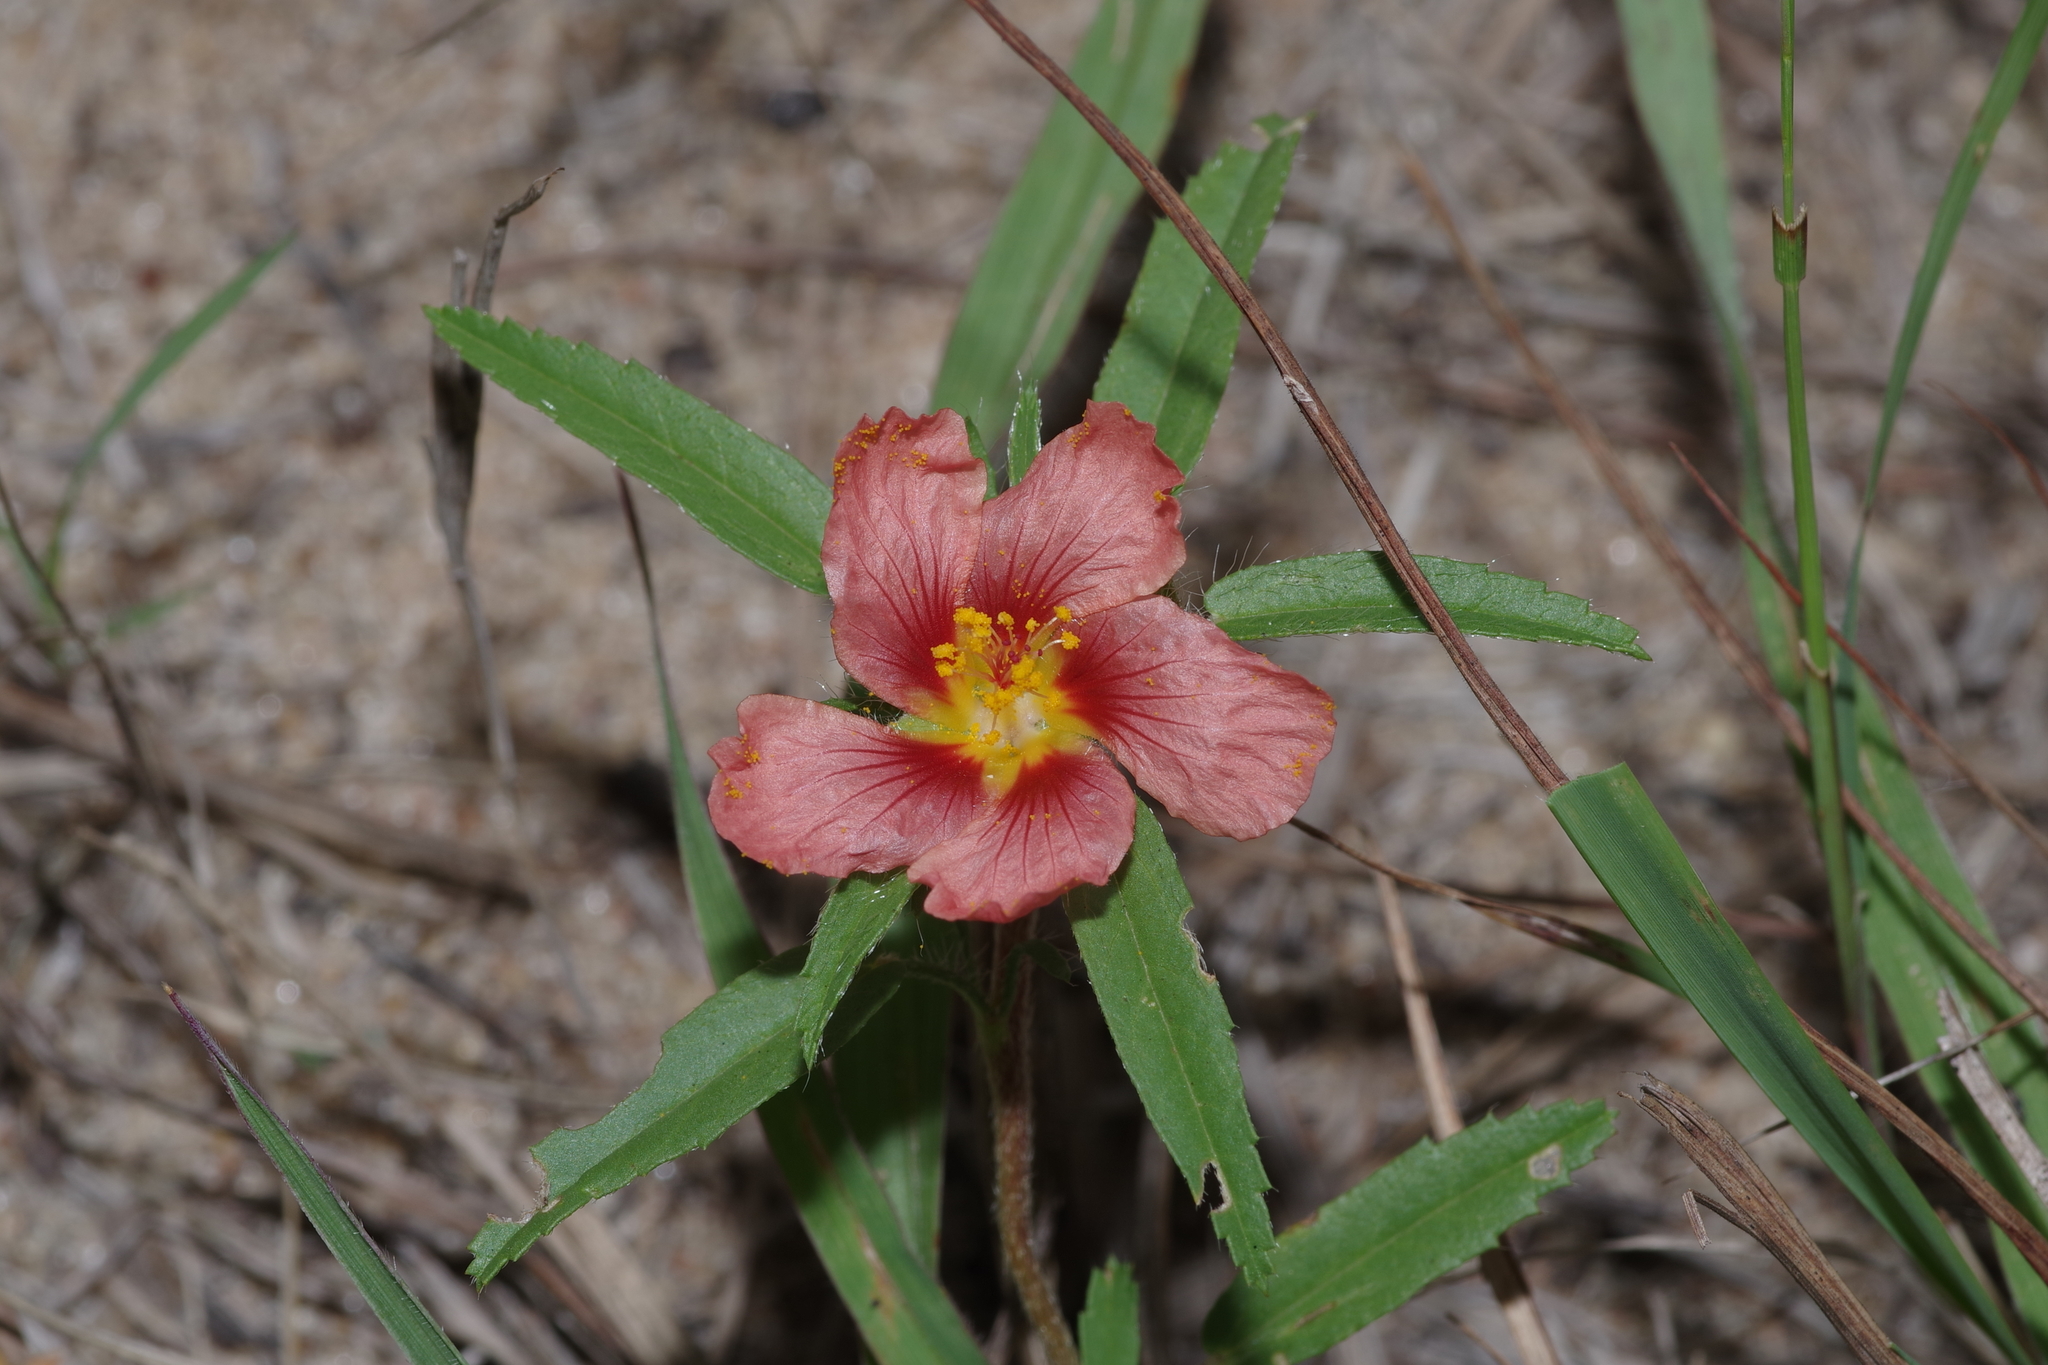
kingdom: Plantae
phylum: Tracheophyta
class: Magnoliopsida
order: Malvales
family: Malvaceae
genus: Sida
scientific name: Sida ciliaris
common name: Bracted fanpetals
